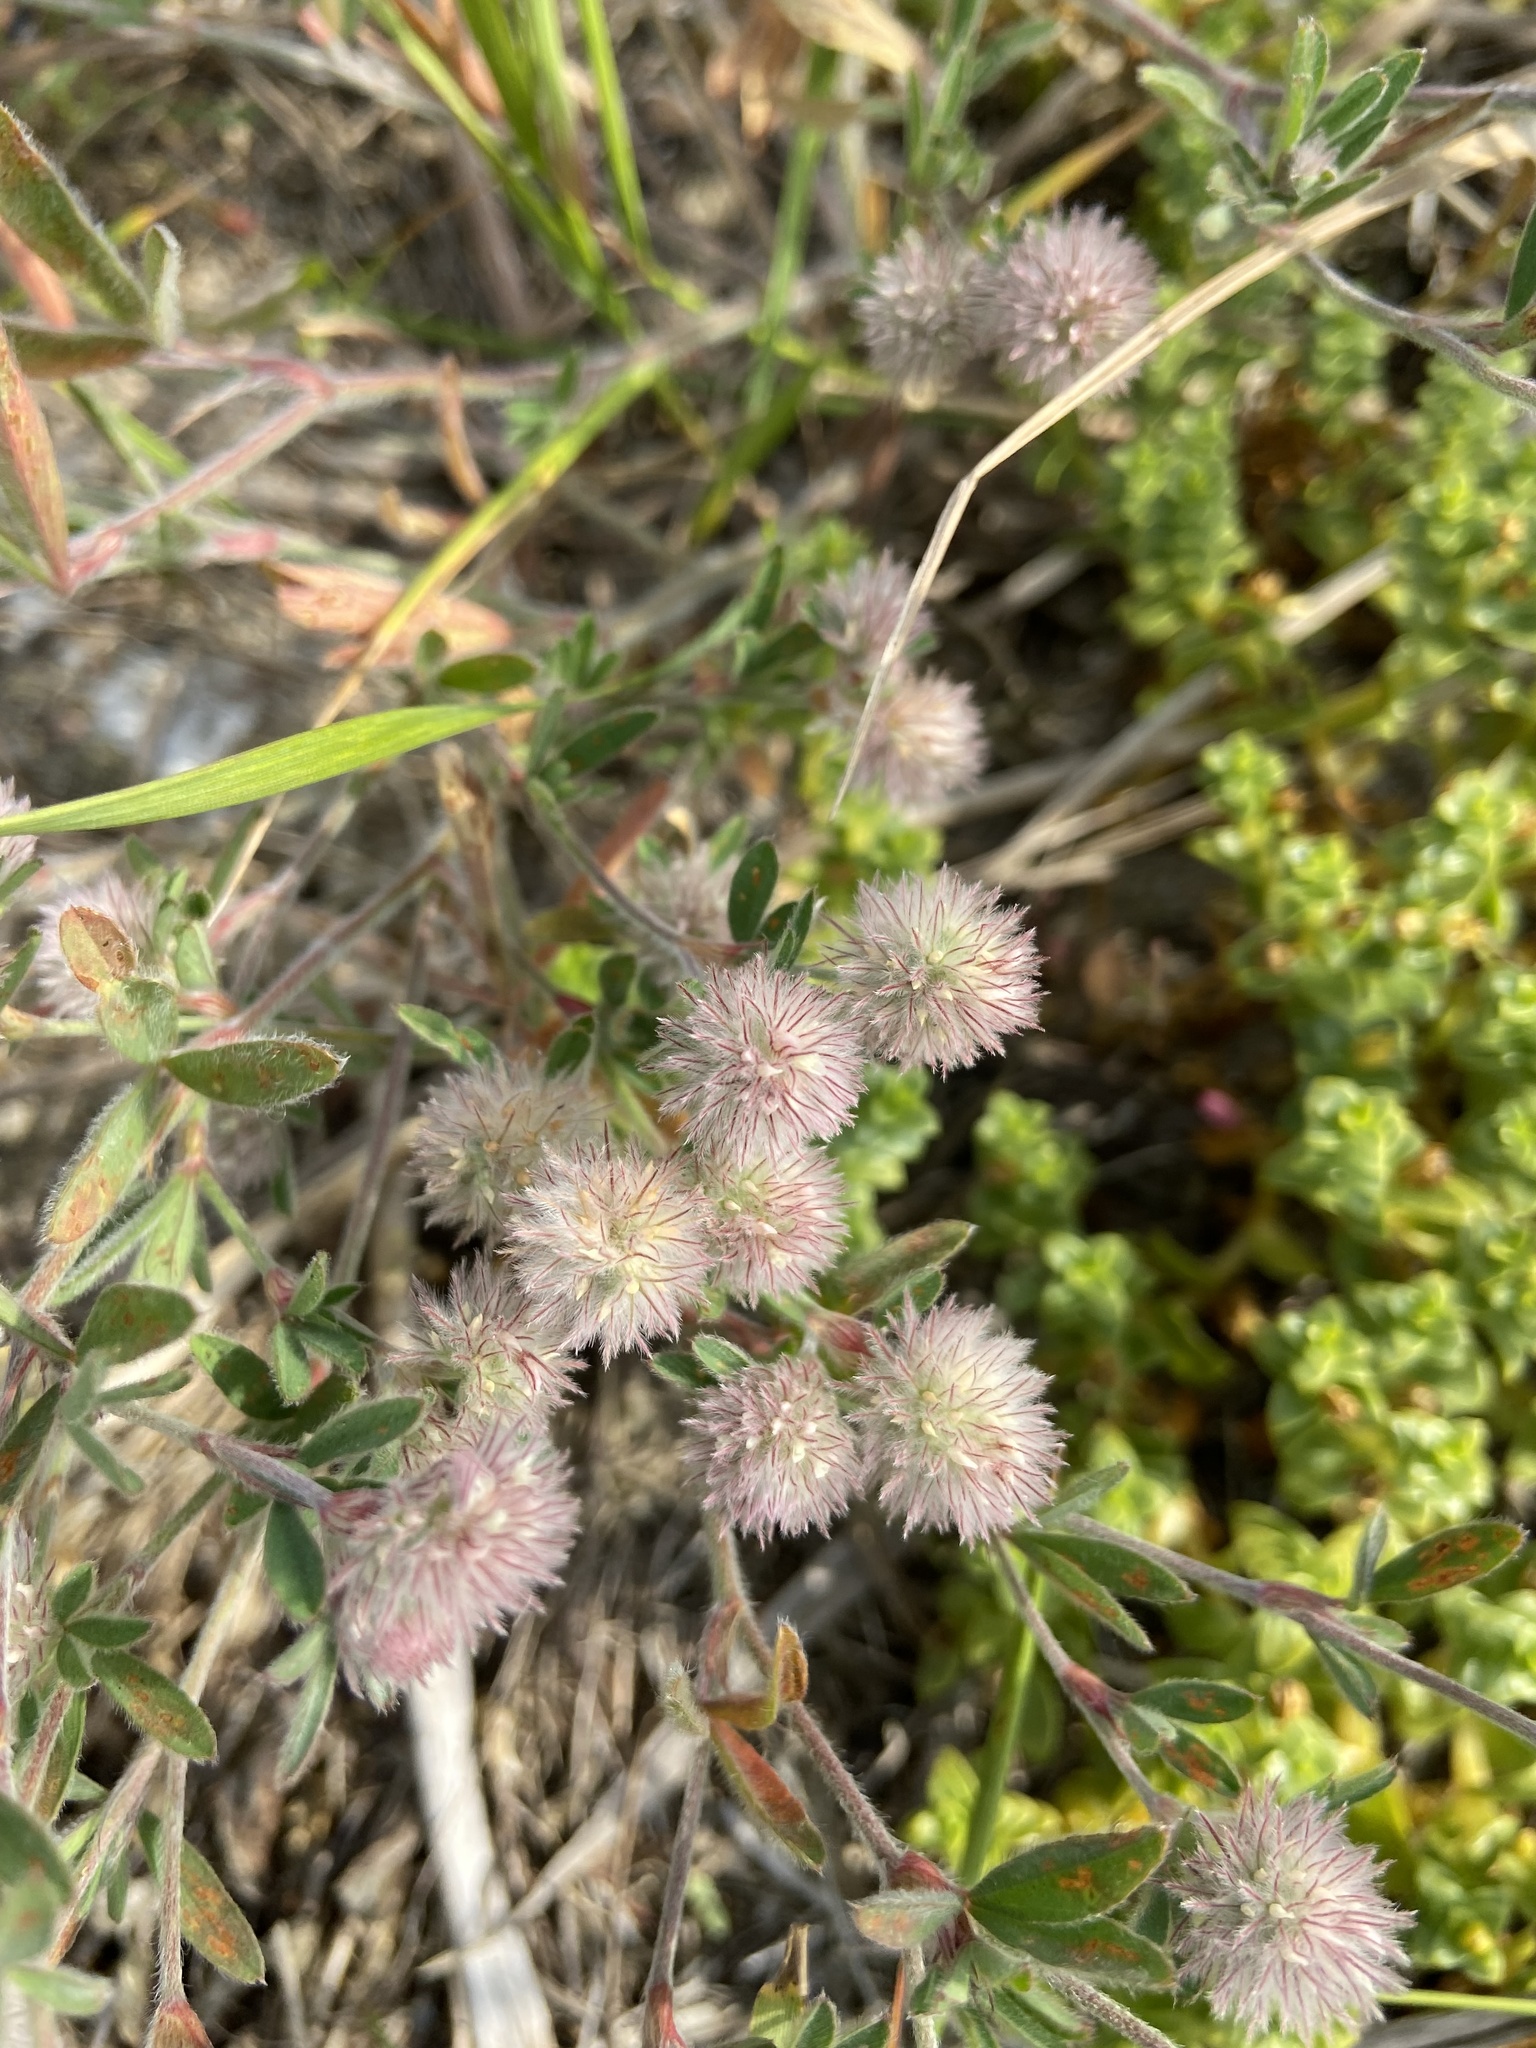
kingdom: Plantae
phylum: Tracheophyta
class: Magnoliopsida
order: Fabales
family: Fabaceae
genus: Trifolium
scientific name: Trifolium arvense
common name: Hare's-foot clover
